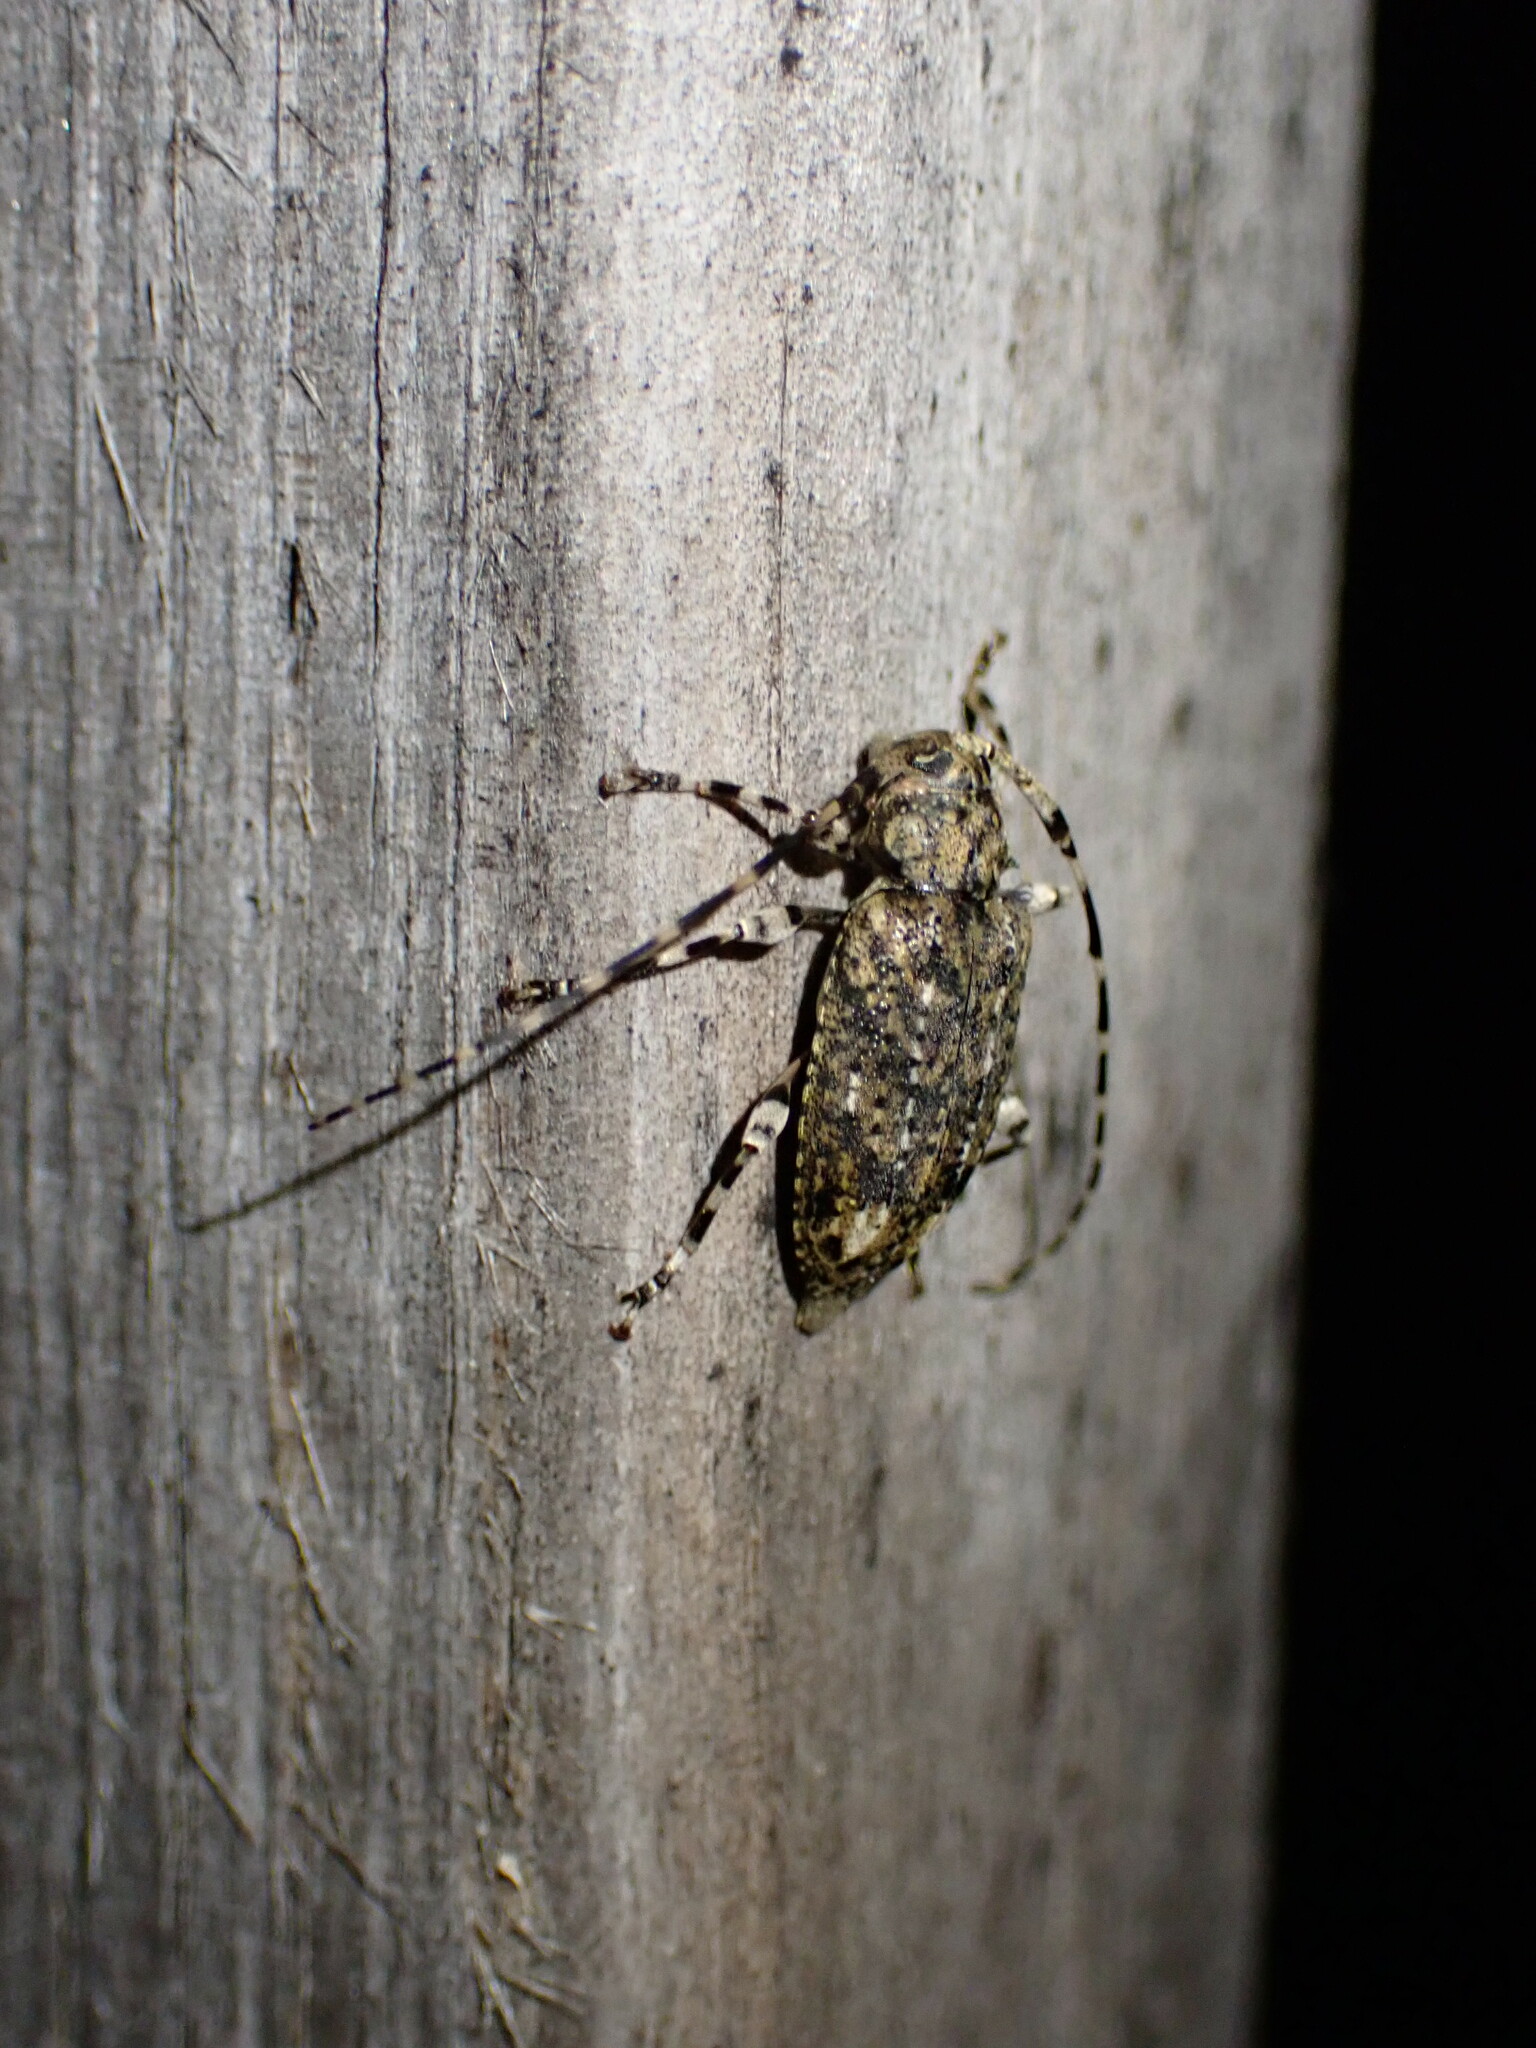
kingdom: Animalia
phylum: Arthropoda
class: Insecta
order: Coleoptera
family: Cerambycidae
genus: Astyleiopus
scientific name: Astyleiopus variegatus
